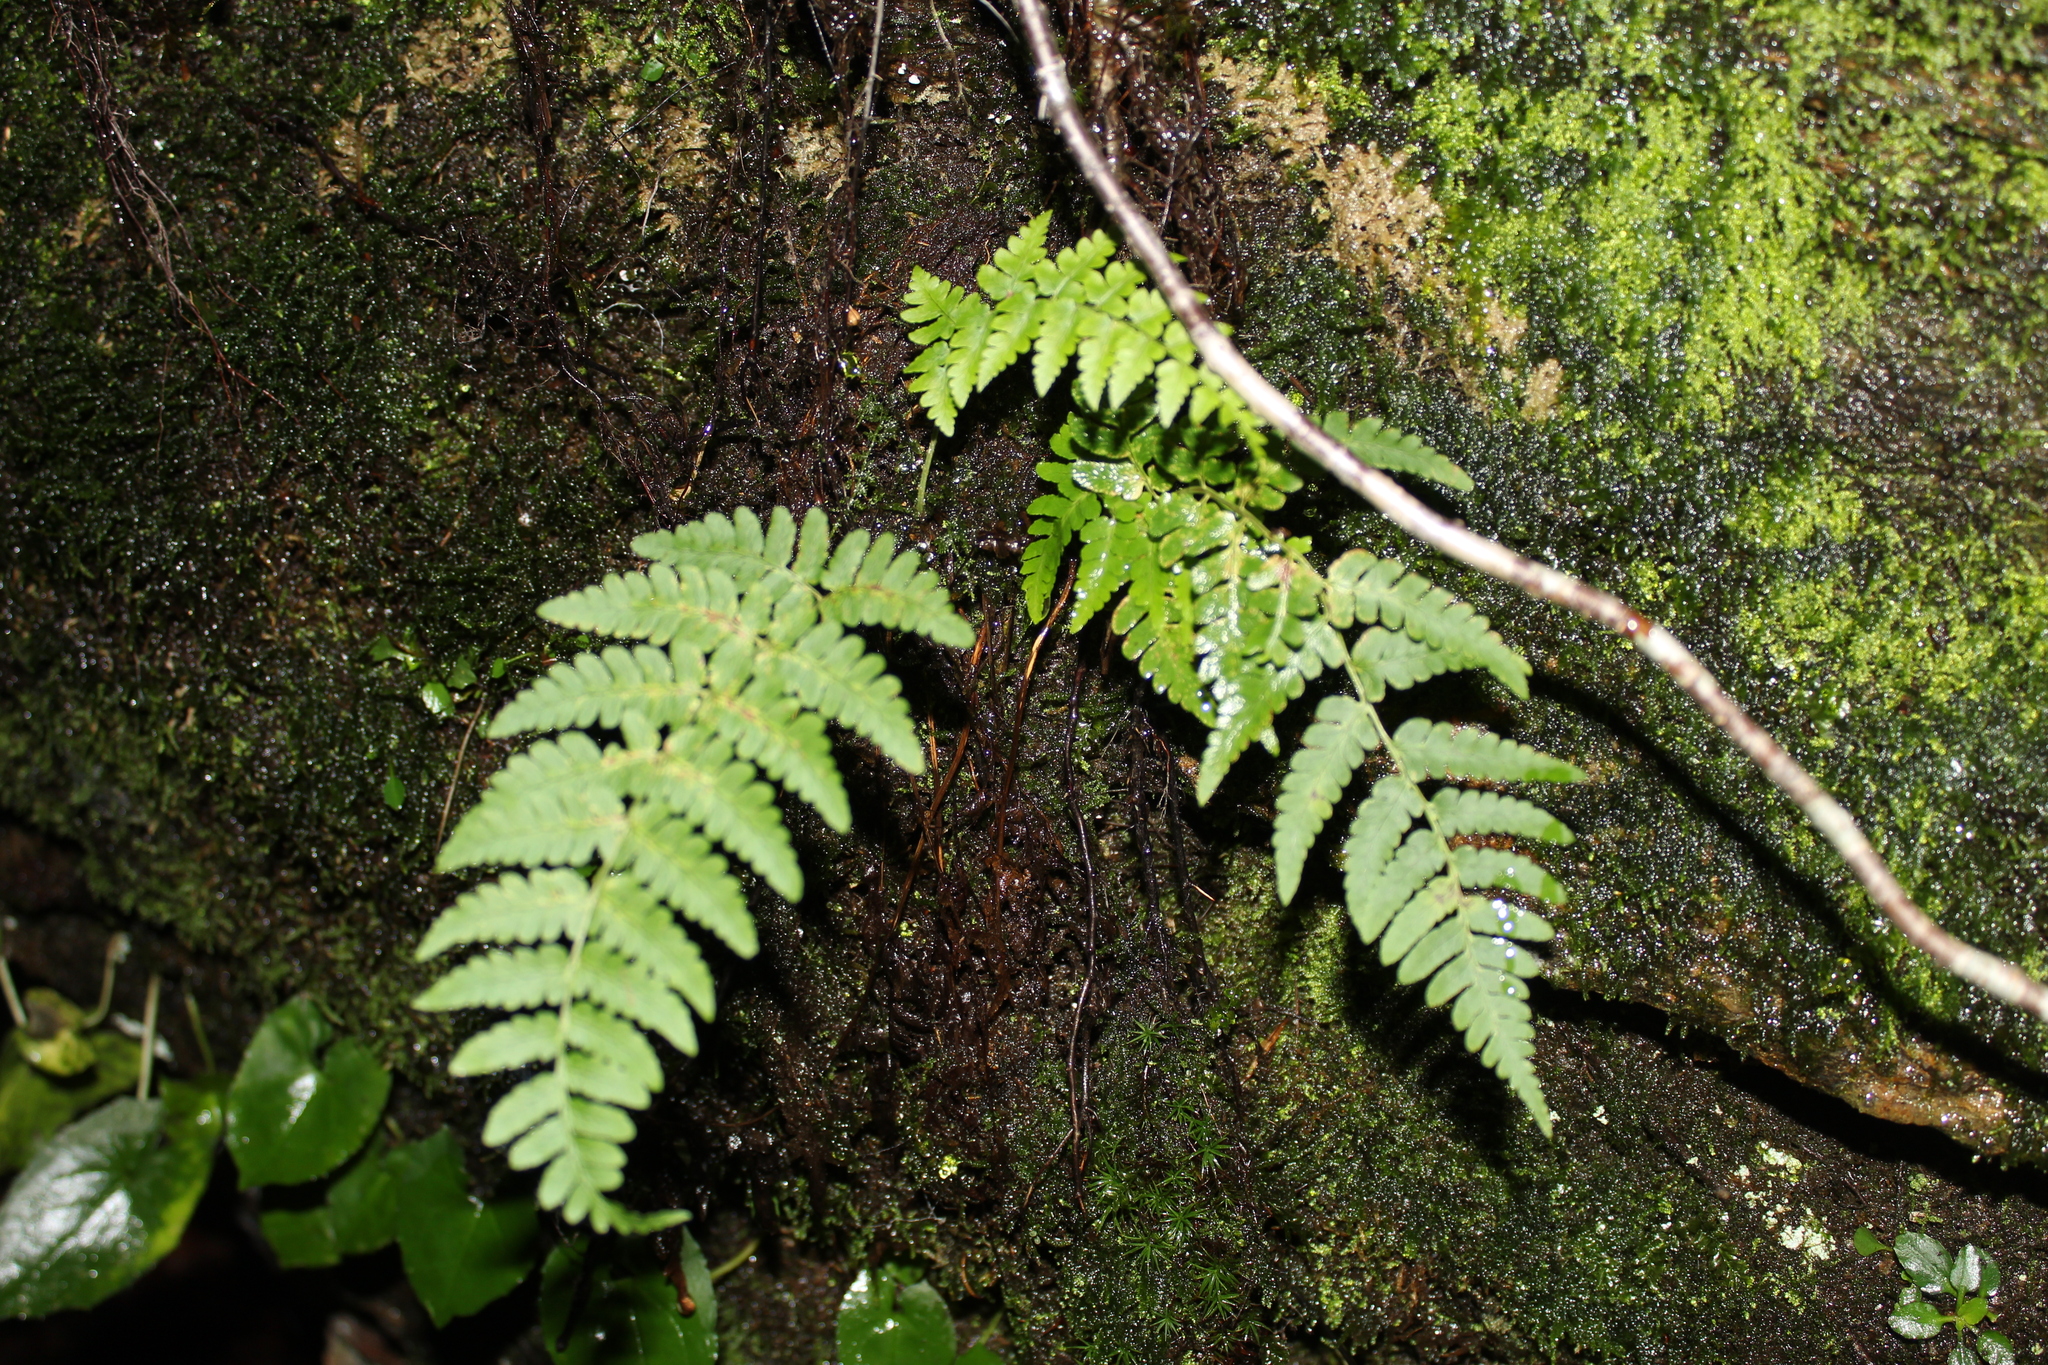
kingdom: Plantae
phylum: Tracheophyta
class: Polypodiopsida
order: Polypodiales
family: Dryopteridaceae
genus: Dryopteris
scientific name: Dryopteris marginalis
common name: Marginal wood fern
